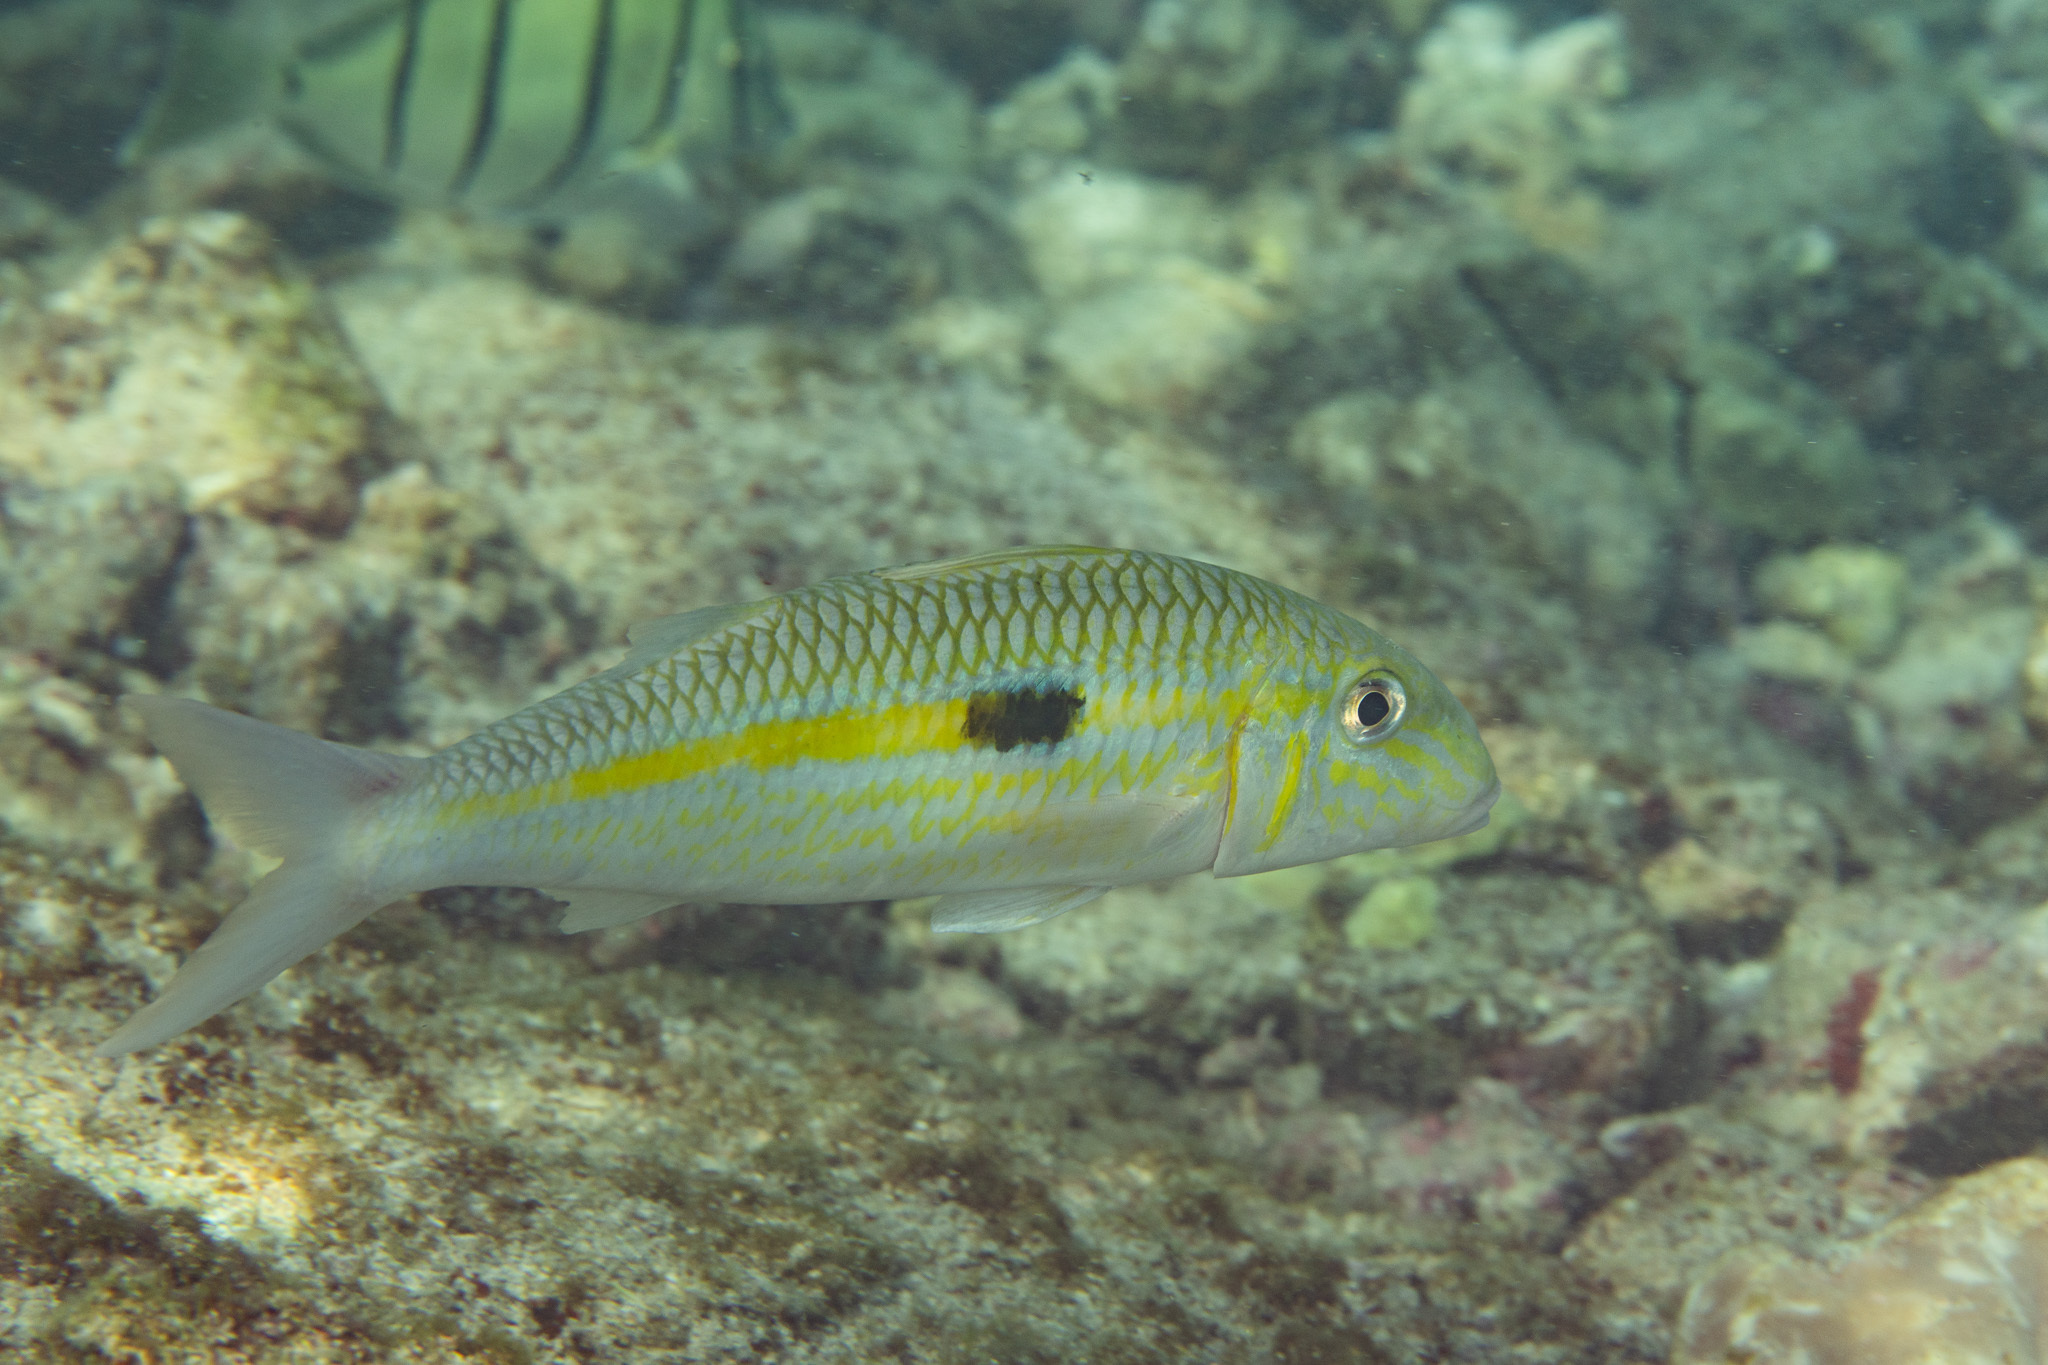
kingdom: Animalia
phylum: Chordata
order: Perciformes
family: Mullidae
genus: Mulloidichthys
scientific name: Mulloidichthys flavolineatus
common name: Yellowstripe goatfish
